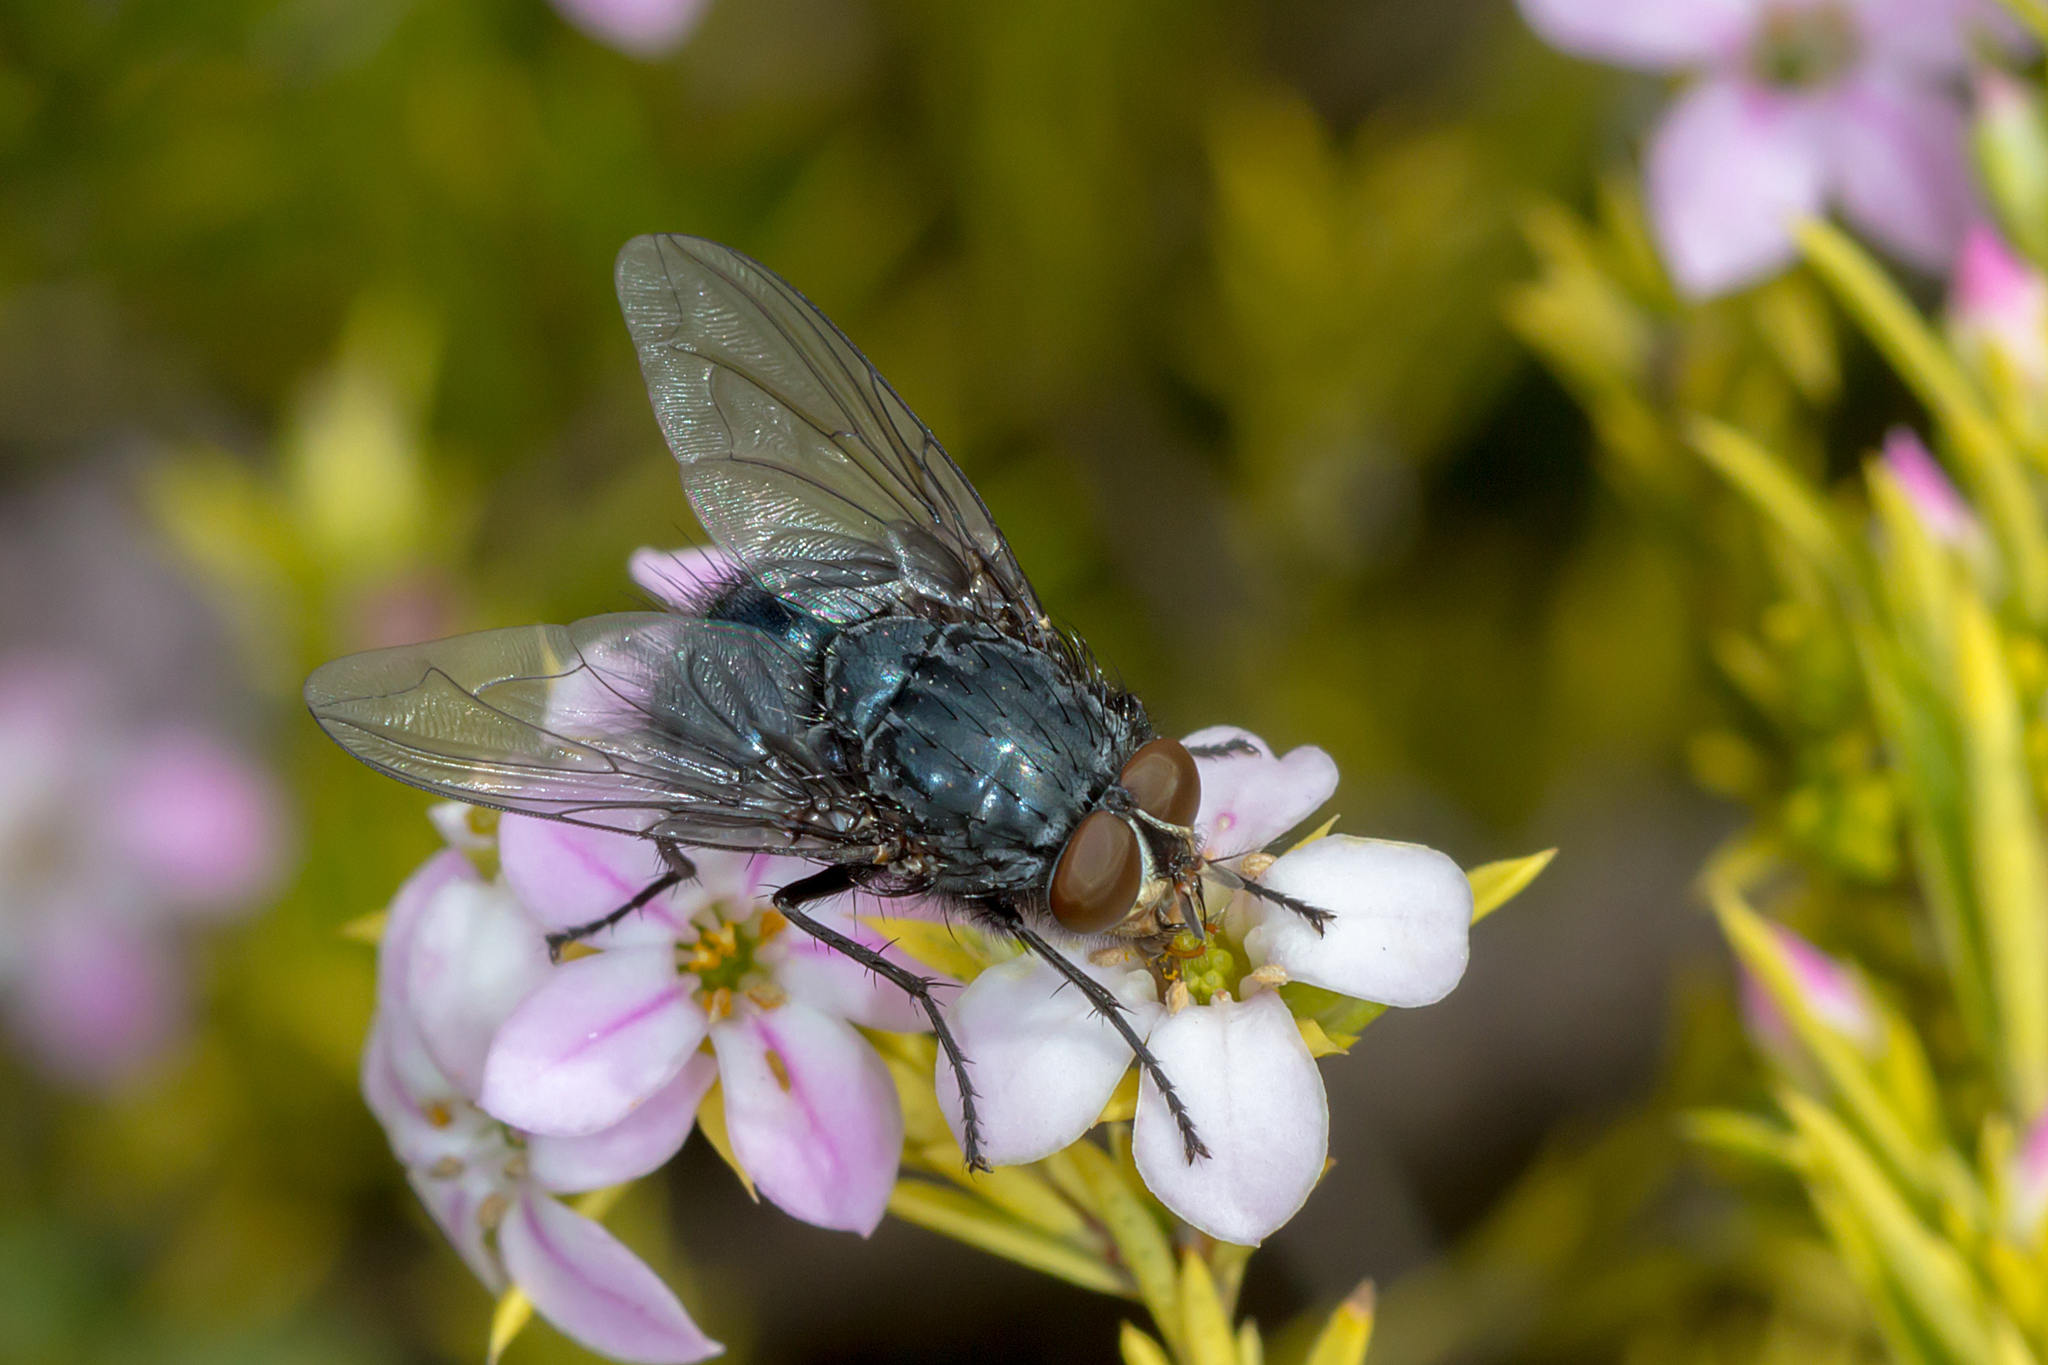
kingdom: Animalia
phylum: Arthropoda
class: Insecta
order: Diptera
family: Calliphoridae
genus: Calliphora
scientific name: Calliphora vicina
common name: Common blow flie
